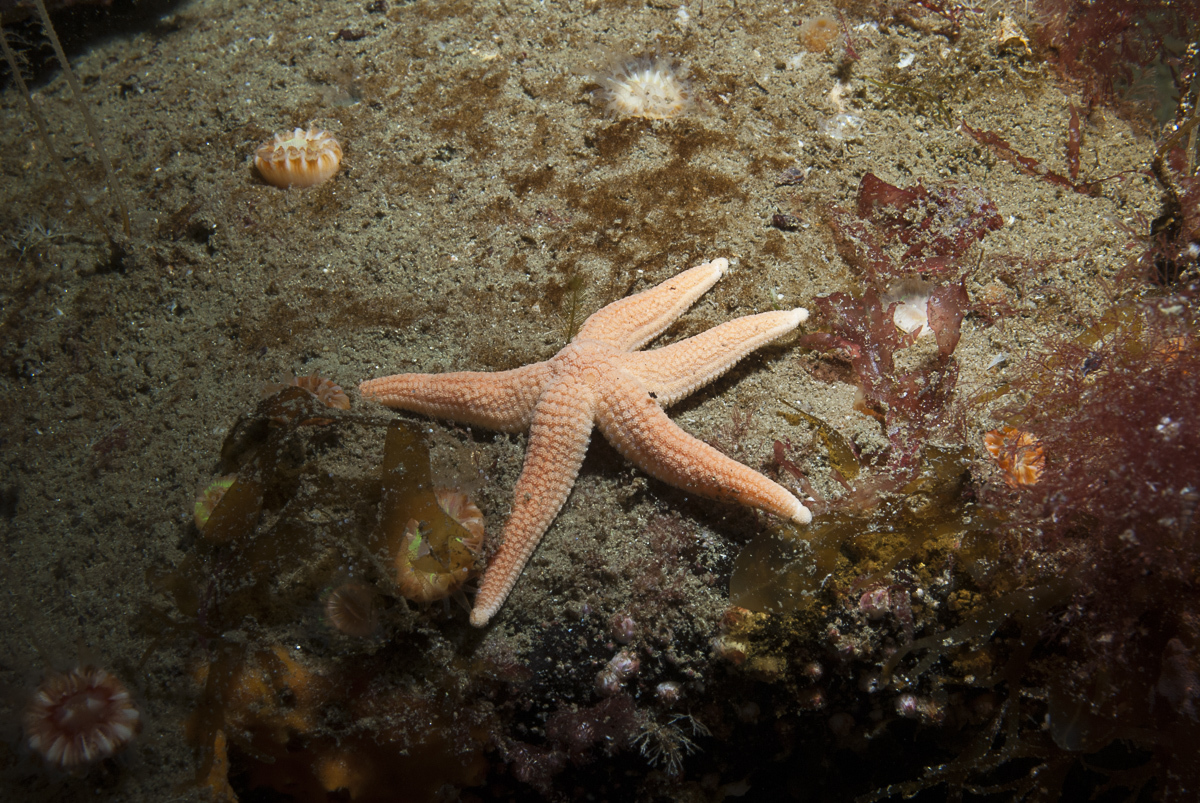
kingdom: Animalia
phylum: Echinodermata
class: Asteroidea
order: Forcipulatida
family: Stichasteridae
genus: Stichastrella
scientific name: Stichastrella rosea
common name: Rosy starfish
